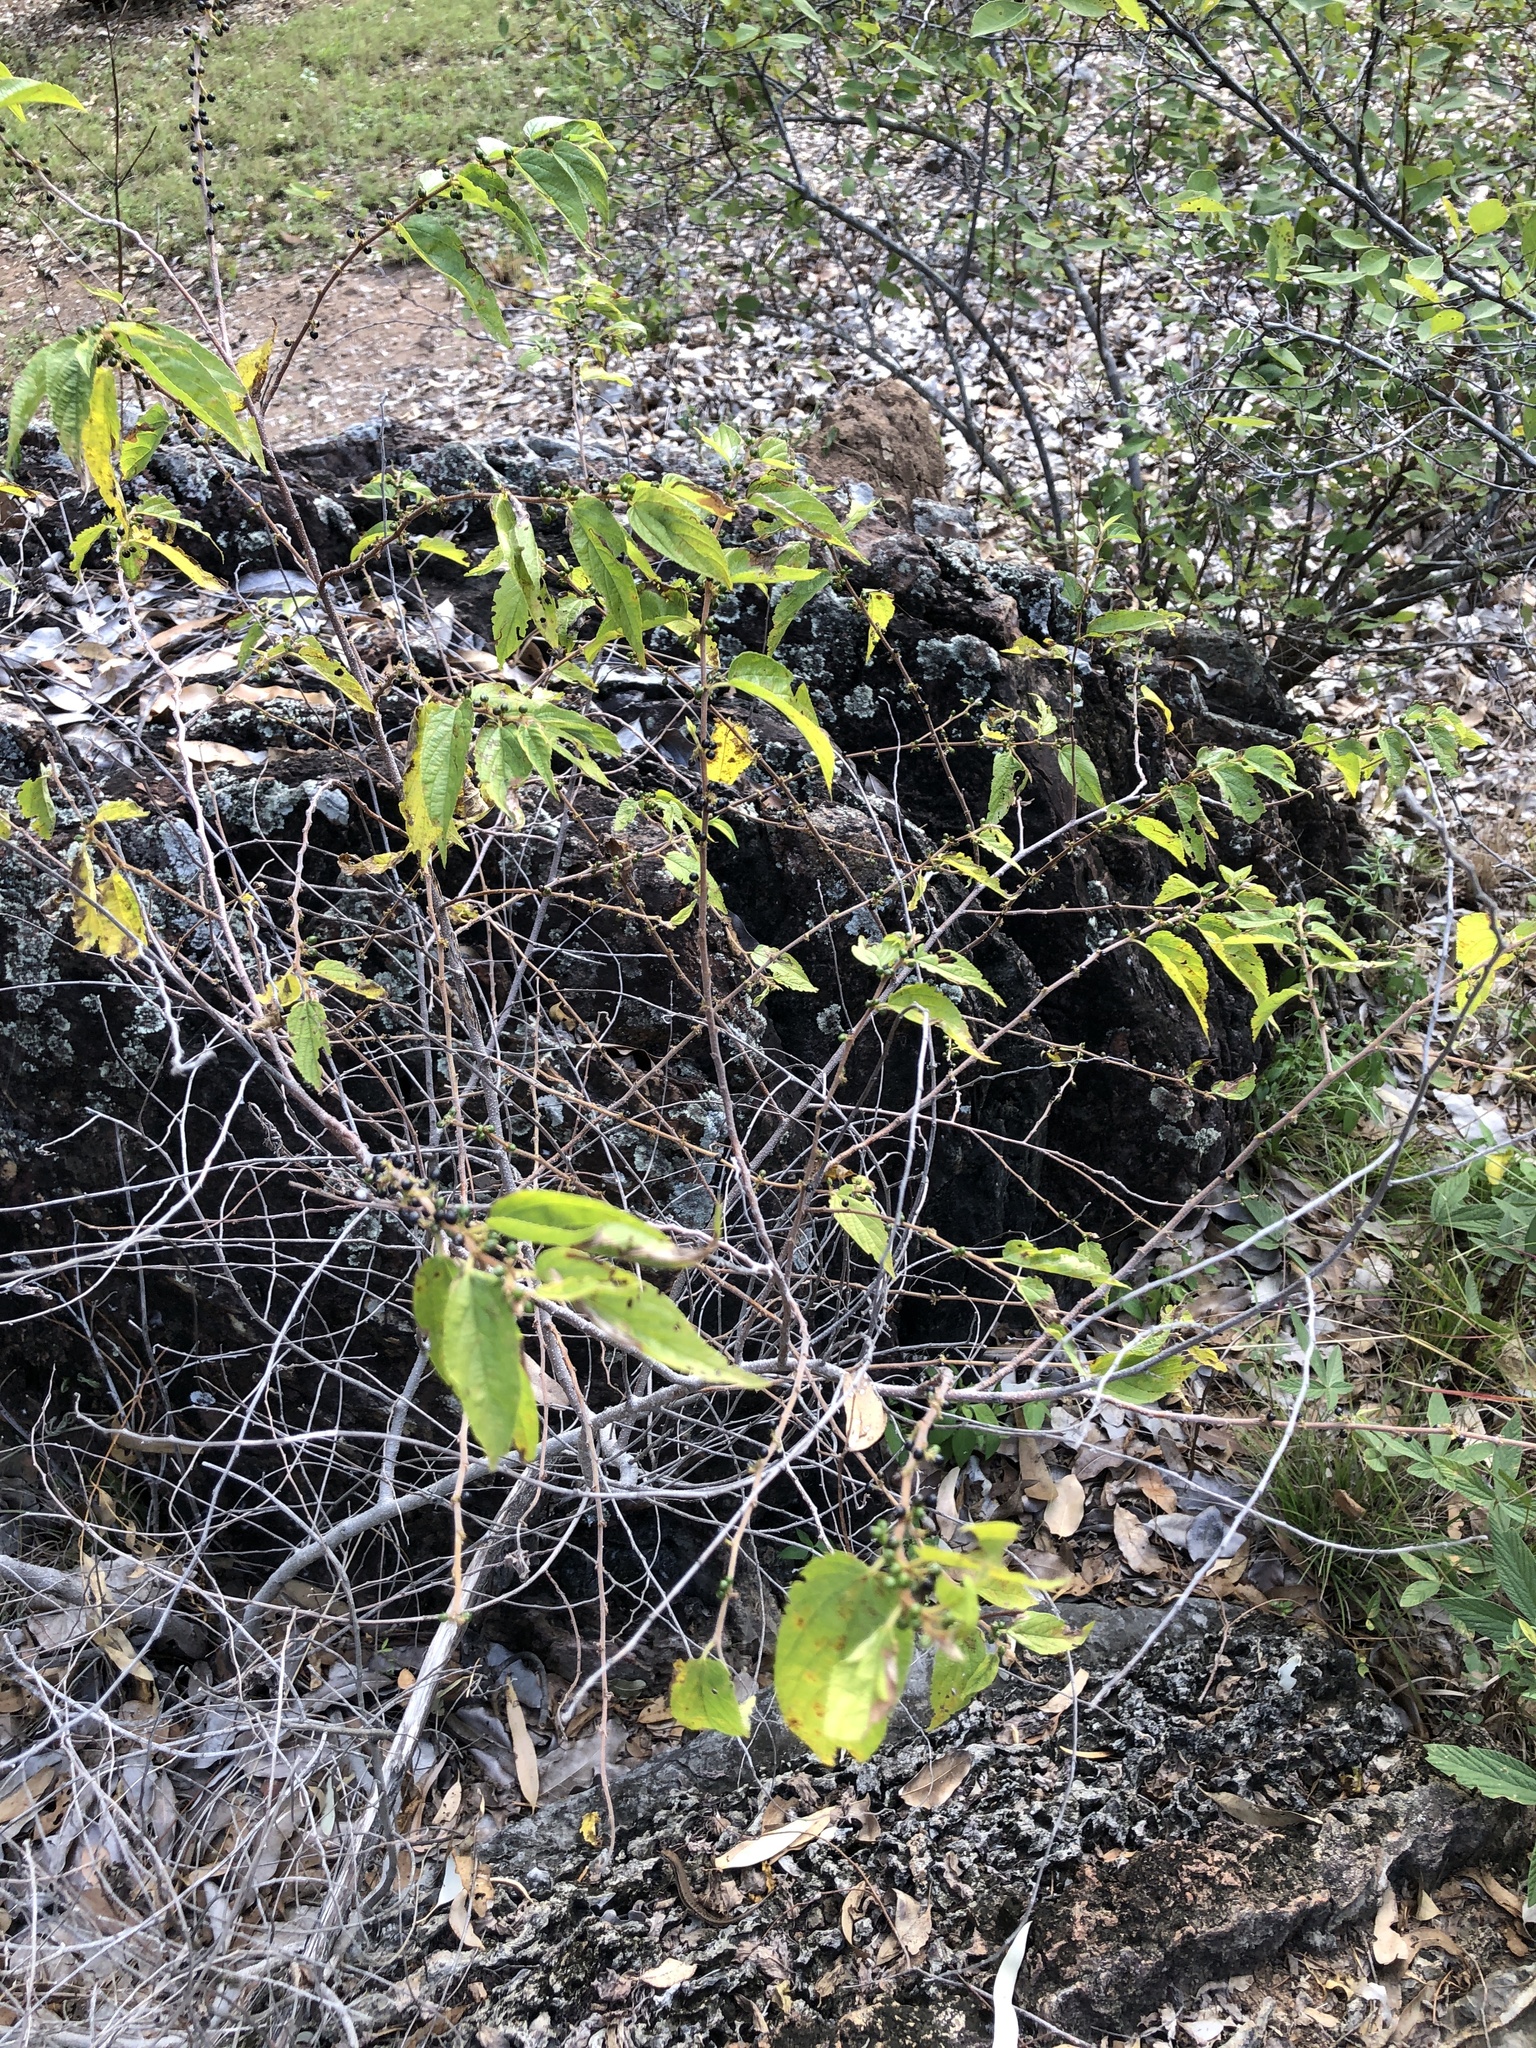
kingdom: Plantae
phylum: Tracheophyta
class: Magnoliopsida
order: Rosales
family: Cannabaceae
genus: Trema
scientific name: Trema tomentosum
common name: Peach-leaf-poisonbush
